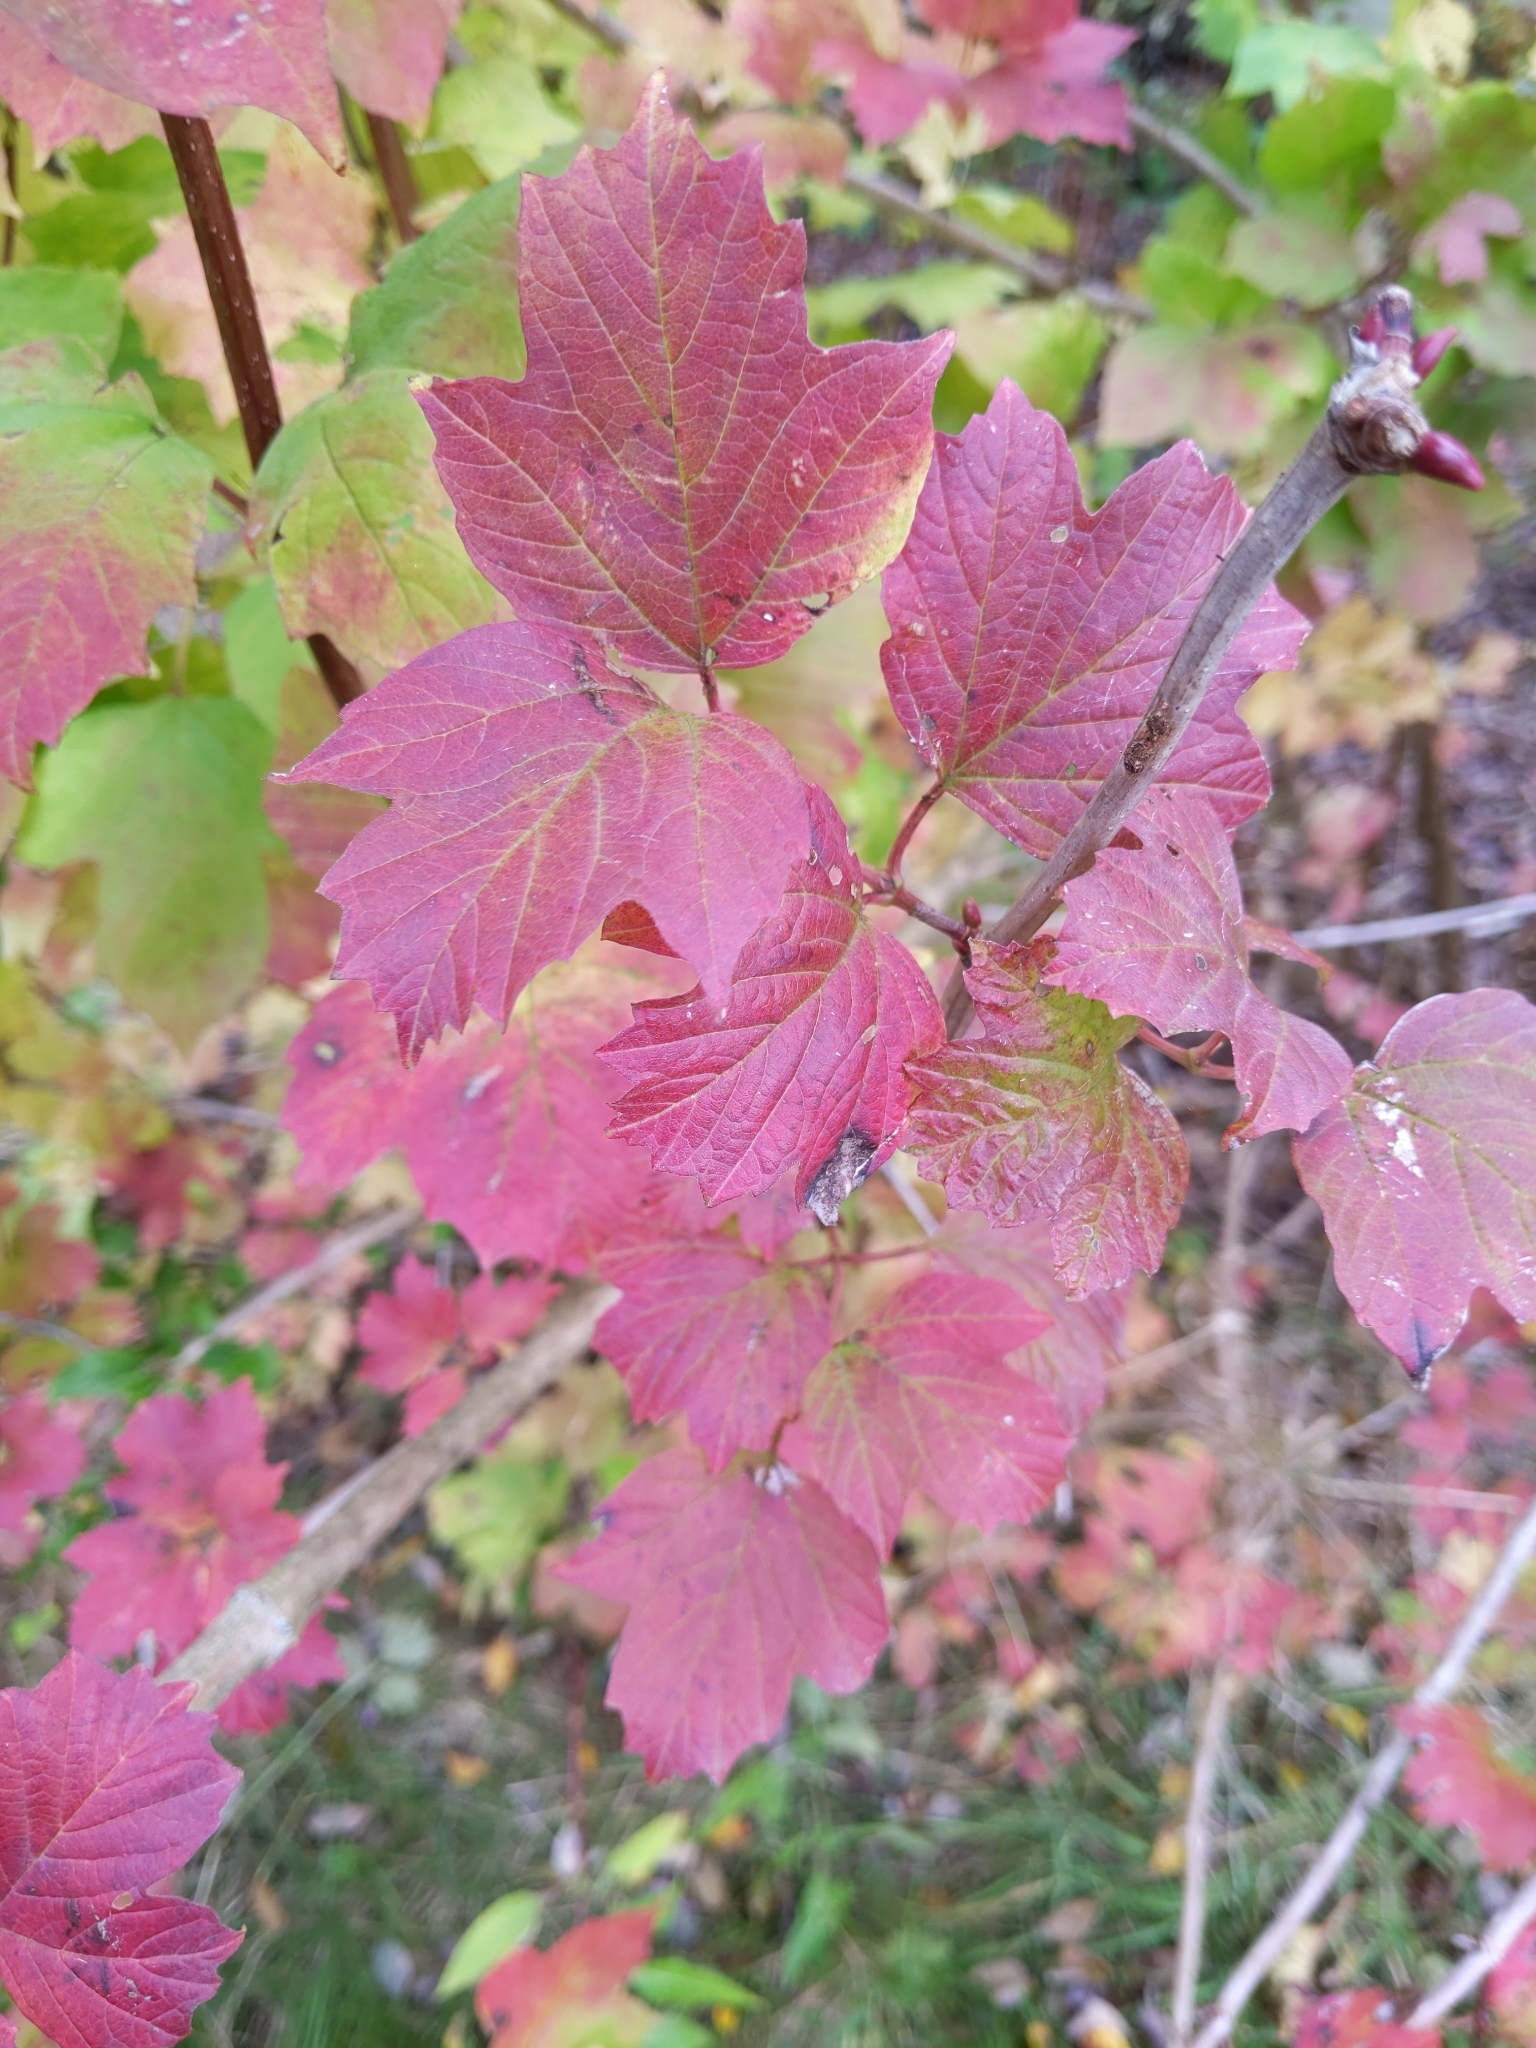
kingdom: Plantae
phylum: Tracheophyta
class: Magnoliopsida
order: Dipsacales
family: Viburnaceae
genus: Viburnum
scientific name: Viburnum opulus
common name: Guelder-rose
